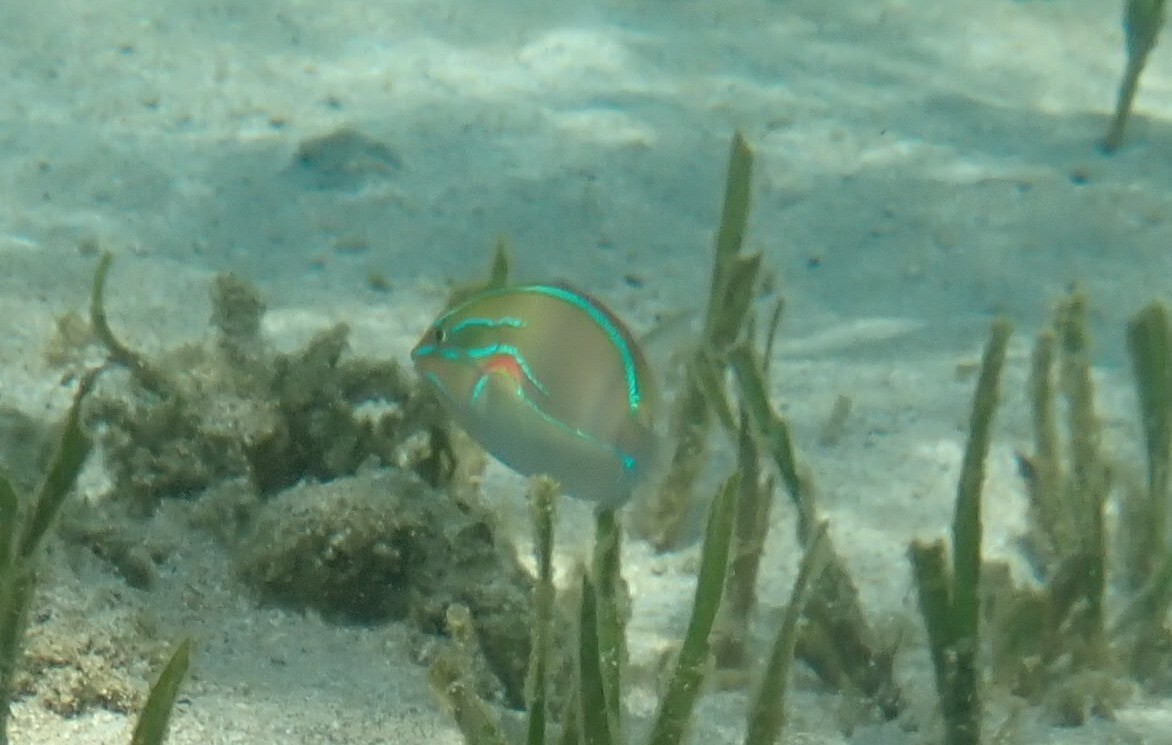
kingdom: Animalia
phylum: Chordata
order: Perciformes
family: Labridae
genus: Stethojulis
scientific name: Stethojulis bandanensis
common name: Red shoulder wrasse
